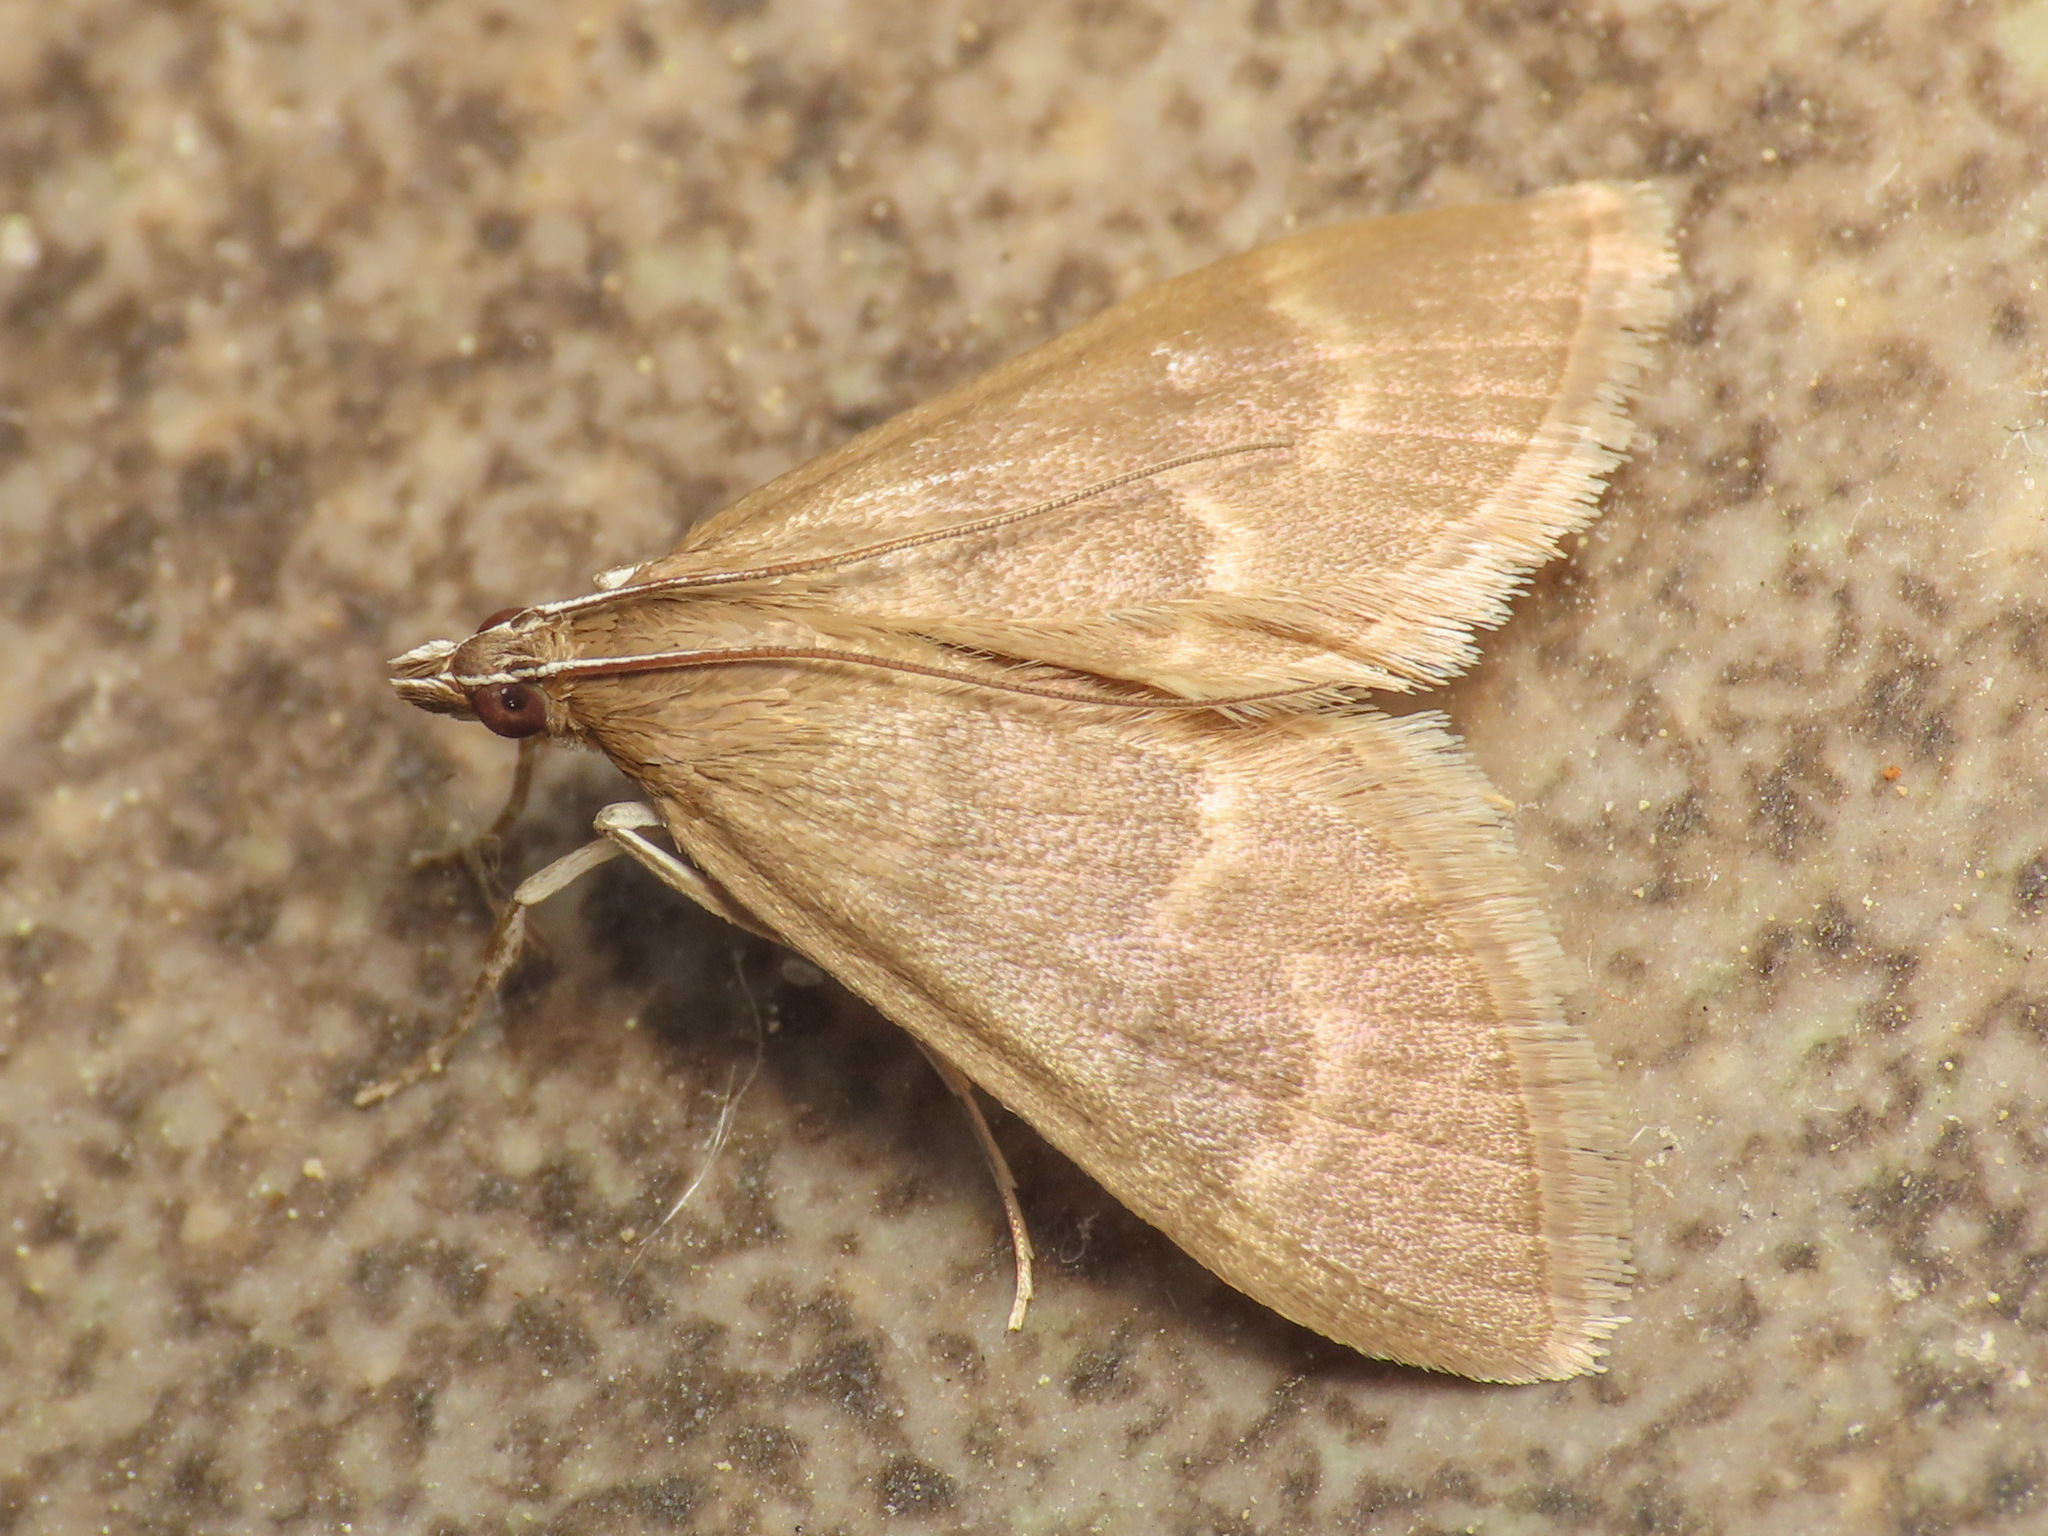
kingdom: Animalia
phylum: Arthropoda
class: Insecta
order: Lepidoptera
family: Crambidae
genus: Ecpyrrhorrhoe
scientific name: Ecpyrrhorrhoe diffusalis
